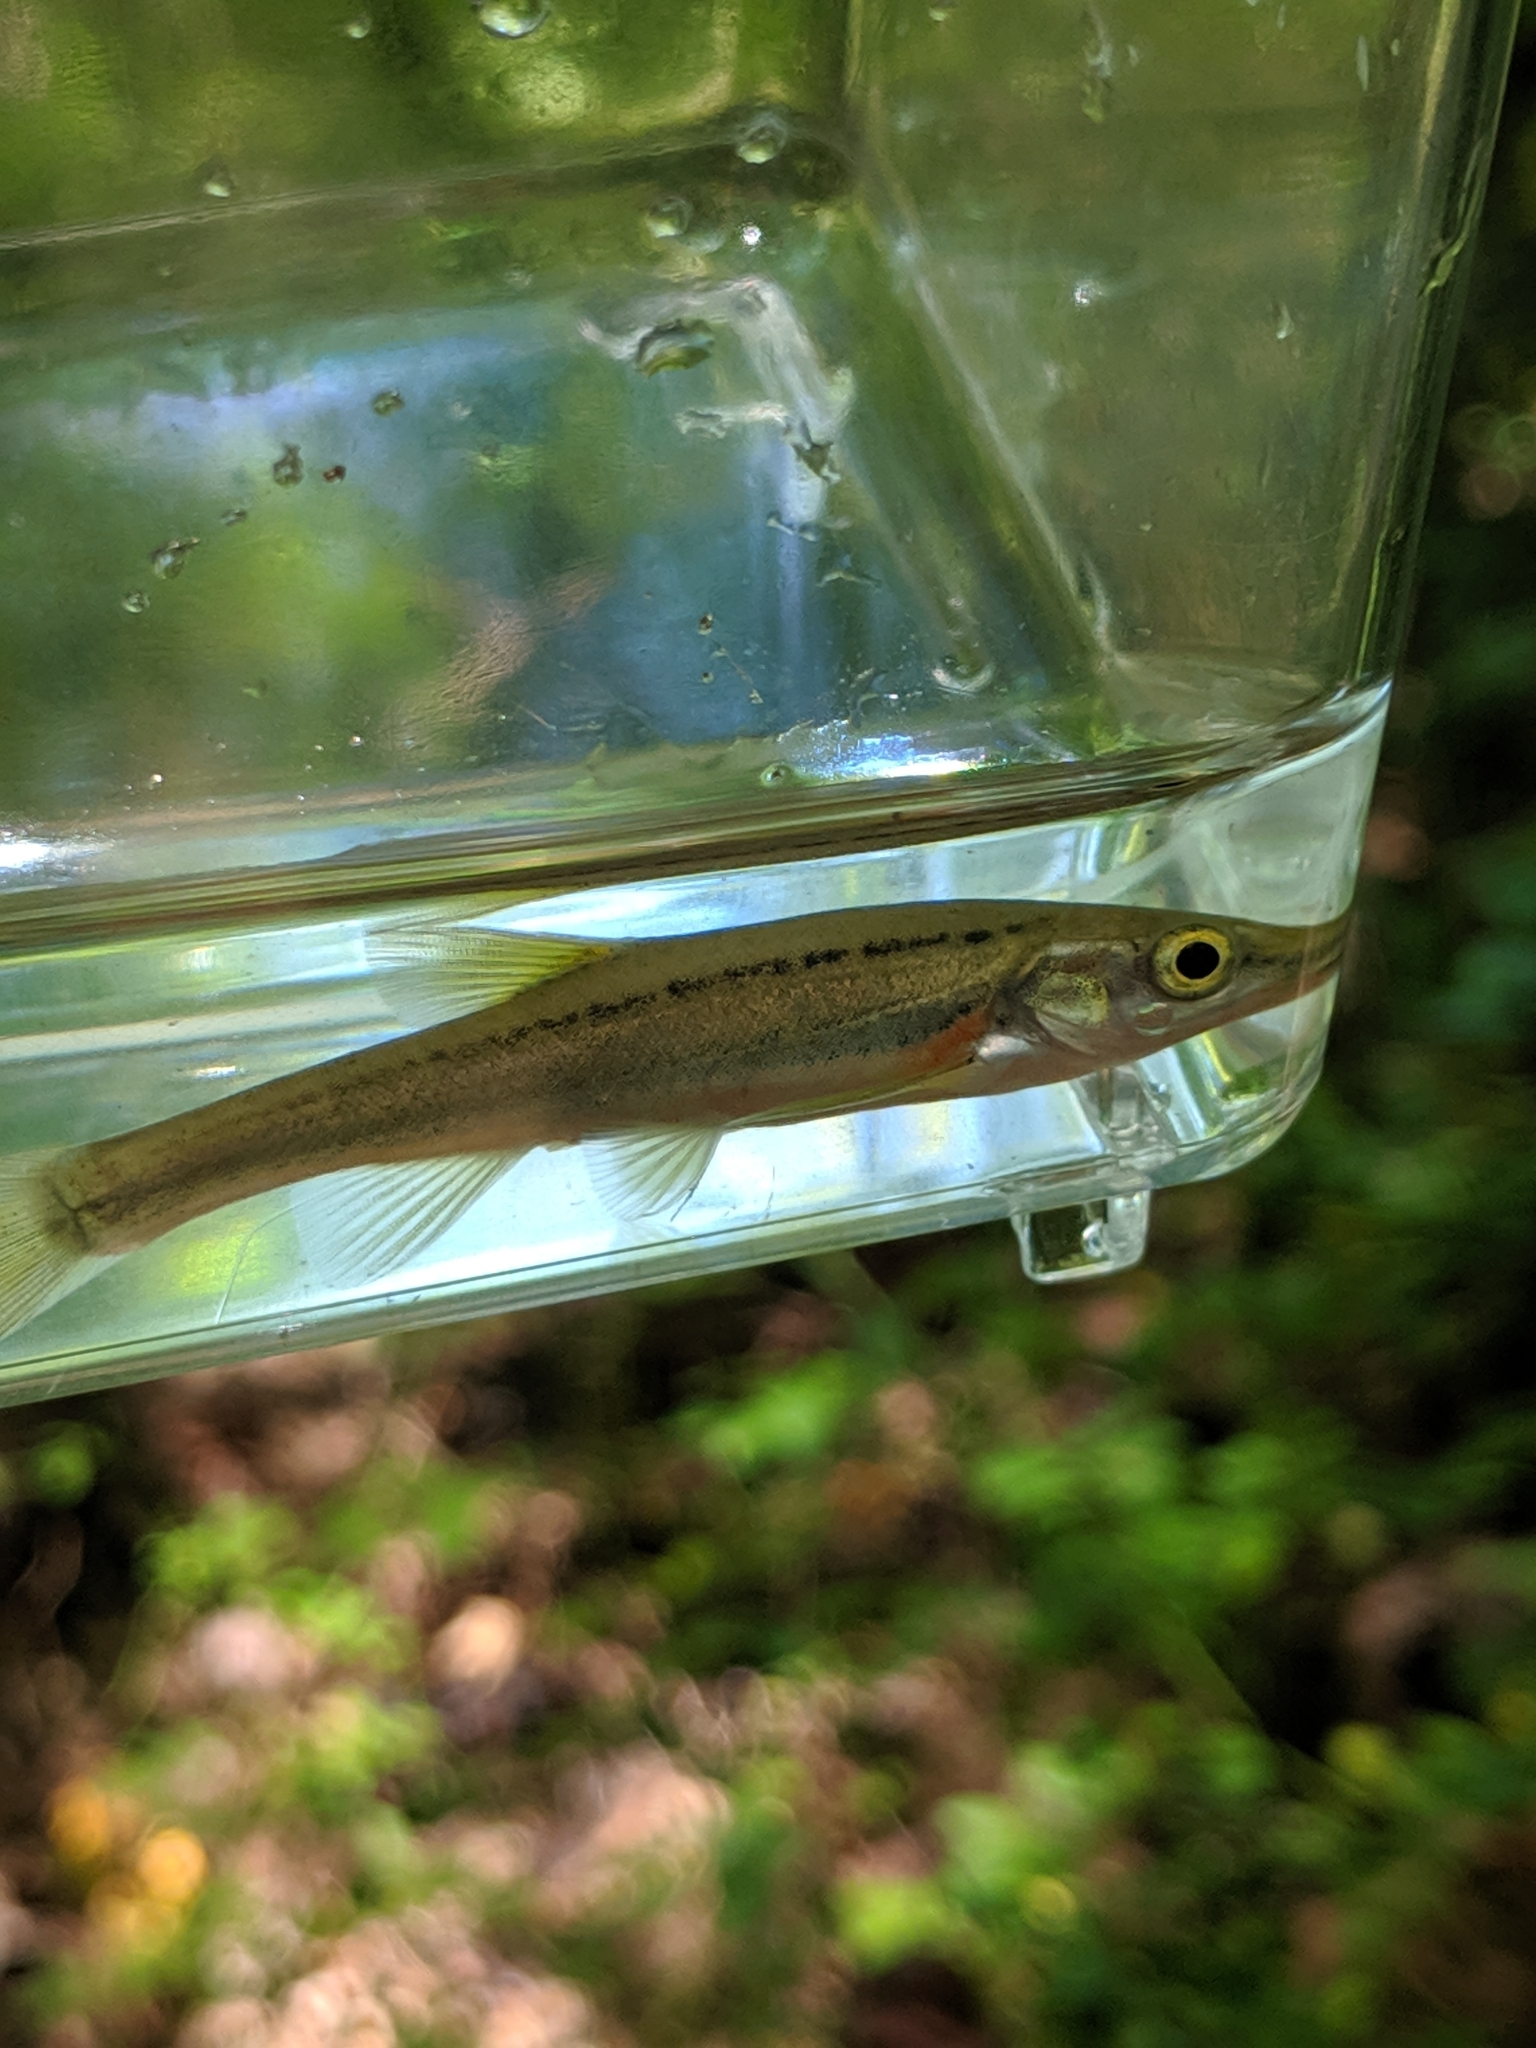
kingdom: Animalia
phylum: Chordata
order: Cypriniformes
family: Cyprinidae
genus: Chrosomus
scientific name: Chrosomus erythrogaster
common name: Southern redbelly dace
